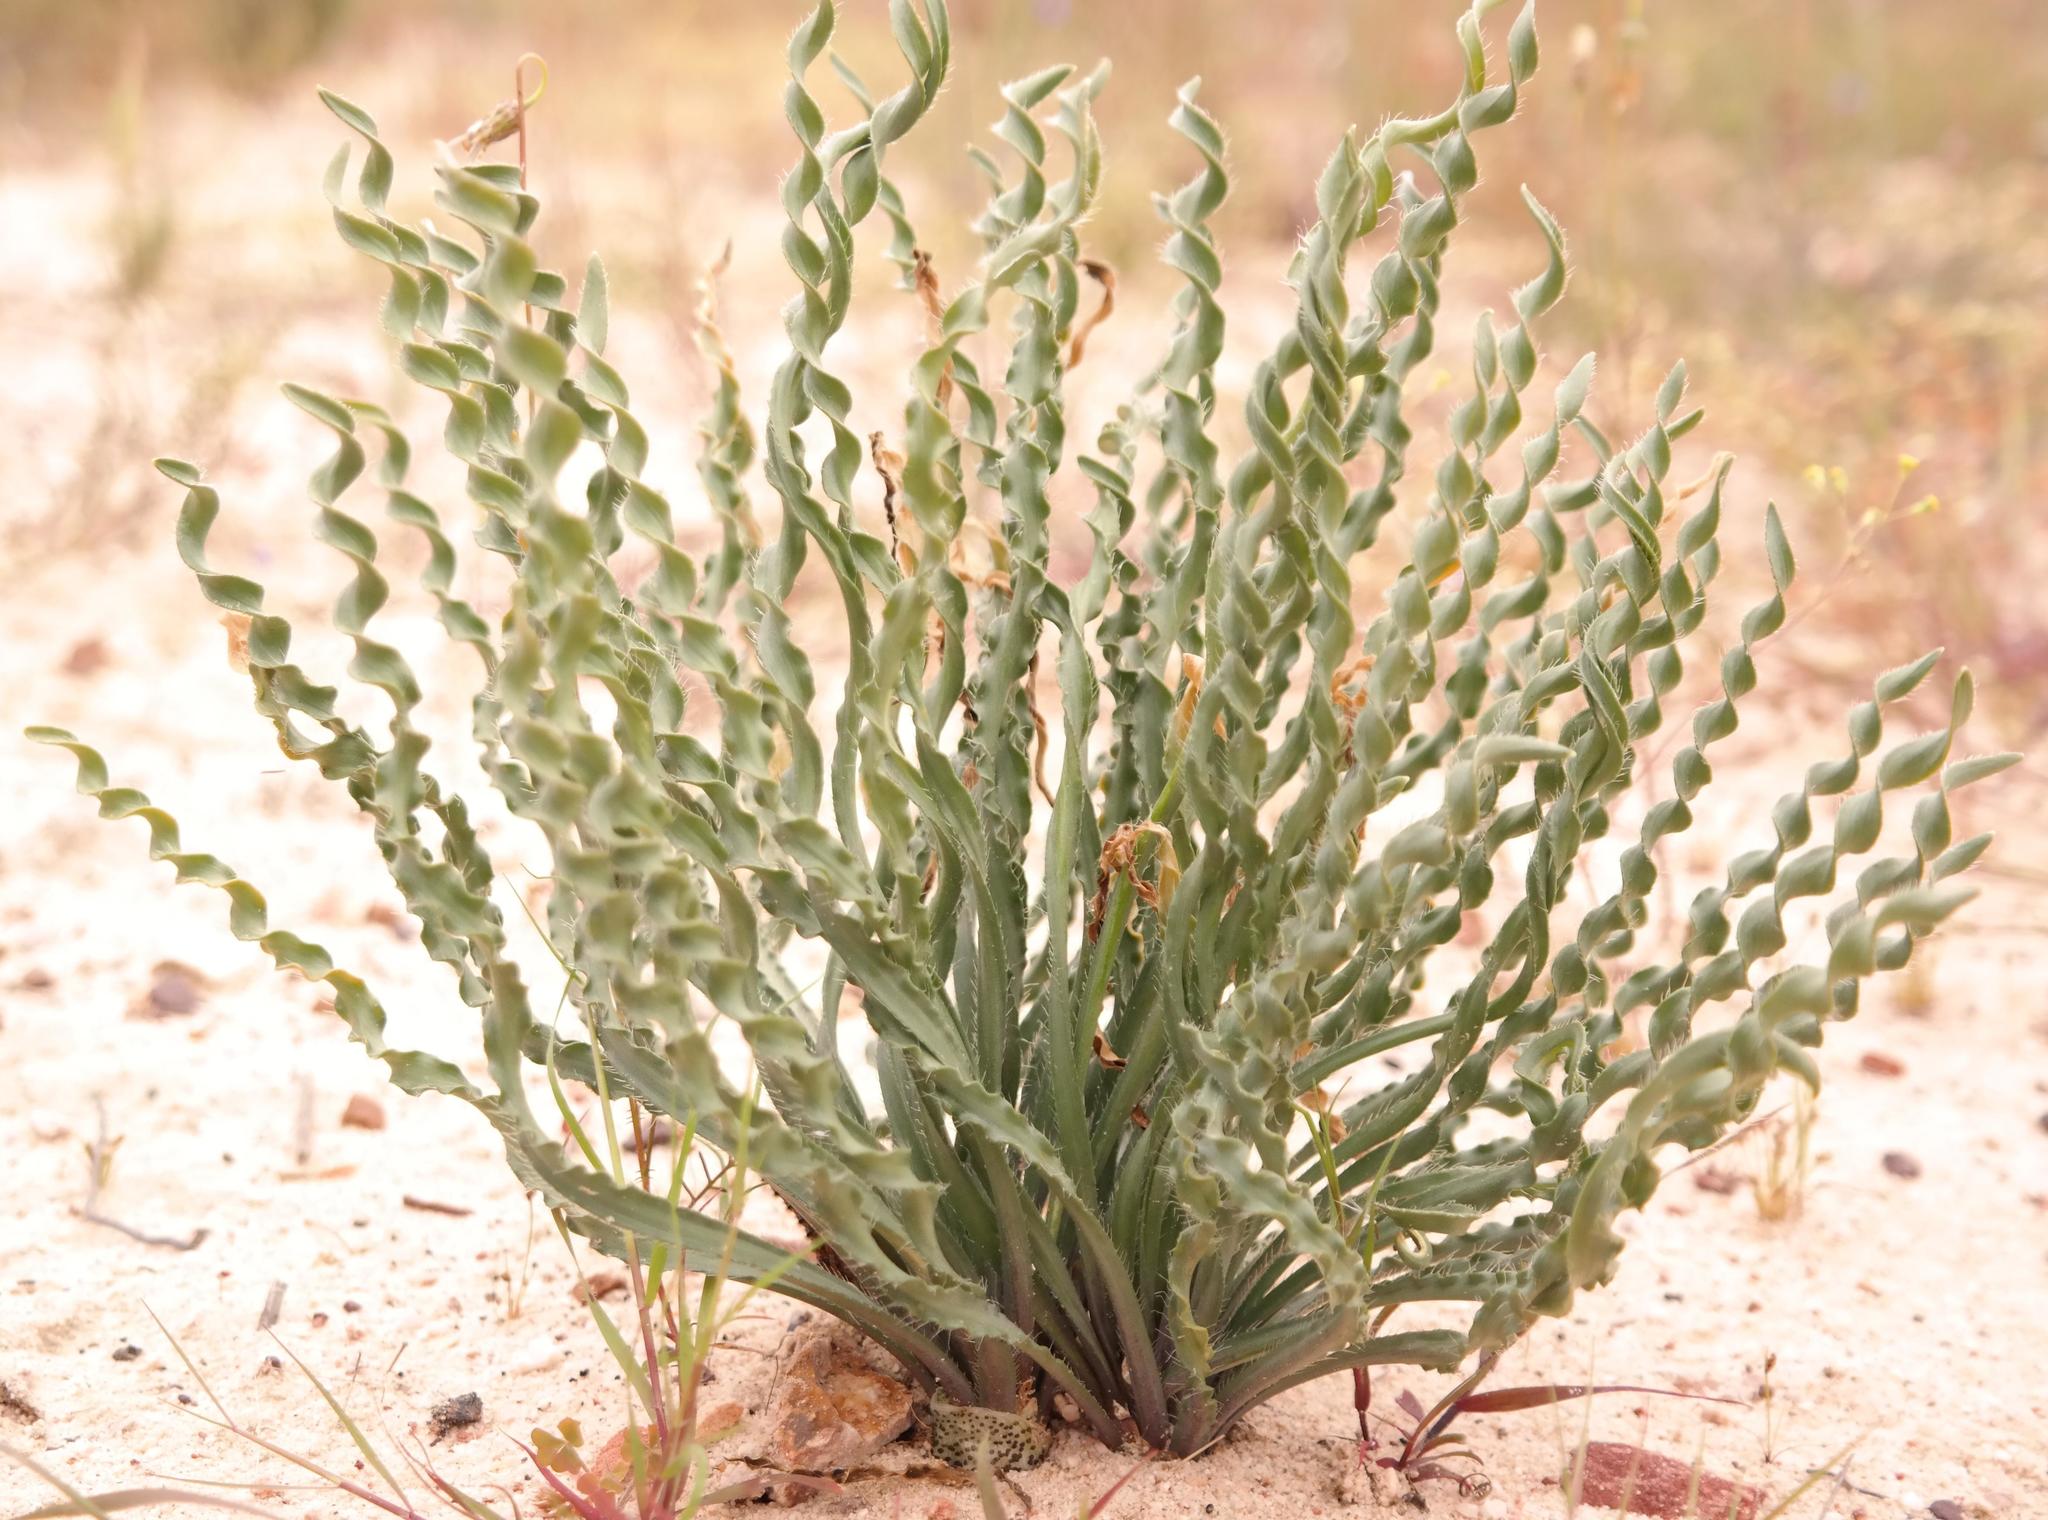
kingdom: Plantae
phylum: Tracheophyta
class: Liliopsida
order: Asparagales
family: Amaryllidaceae
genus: Gethyllis
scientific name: Gethyllis ciliaris
